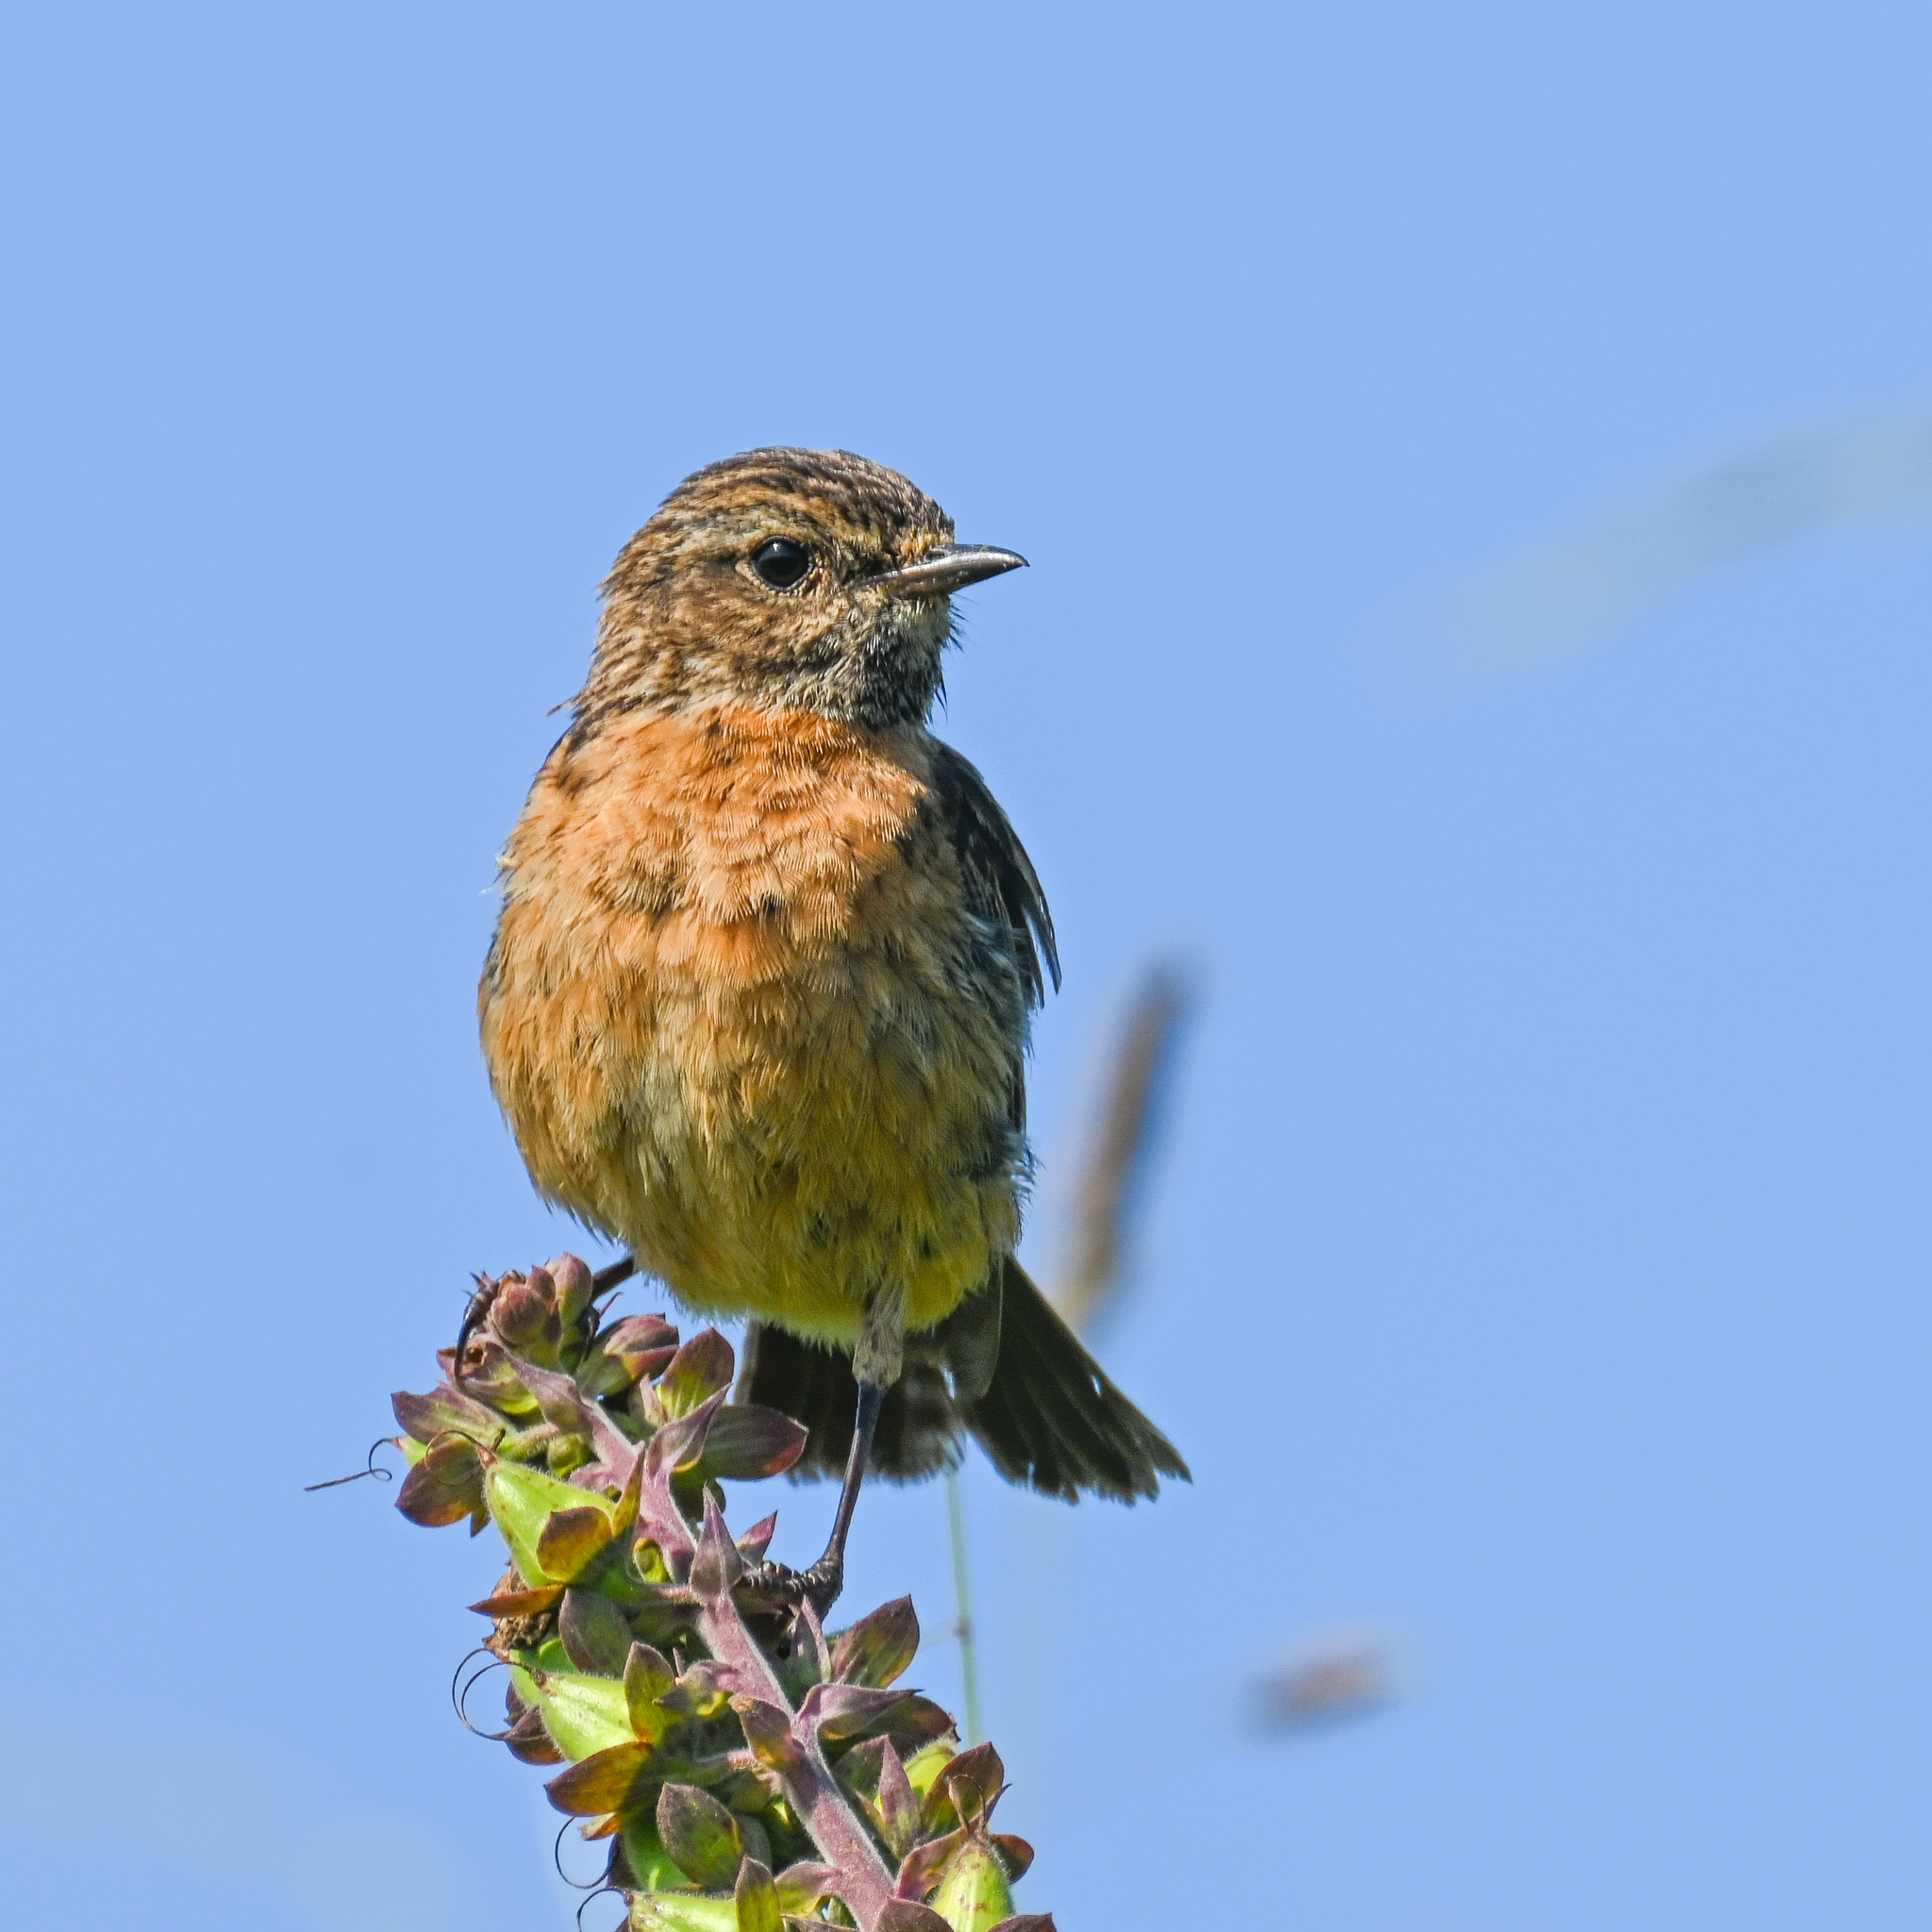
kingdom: Animalia
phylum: Chordata
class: Aves
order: Passeriformes
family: Muscicapidae
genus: Saxicola
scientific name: Saxicola rubicola
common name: European stonechat
